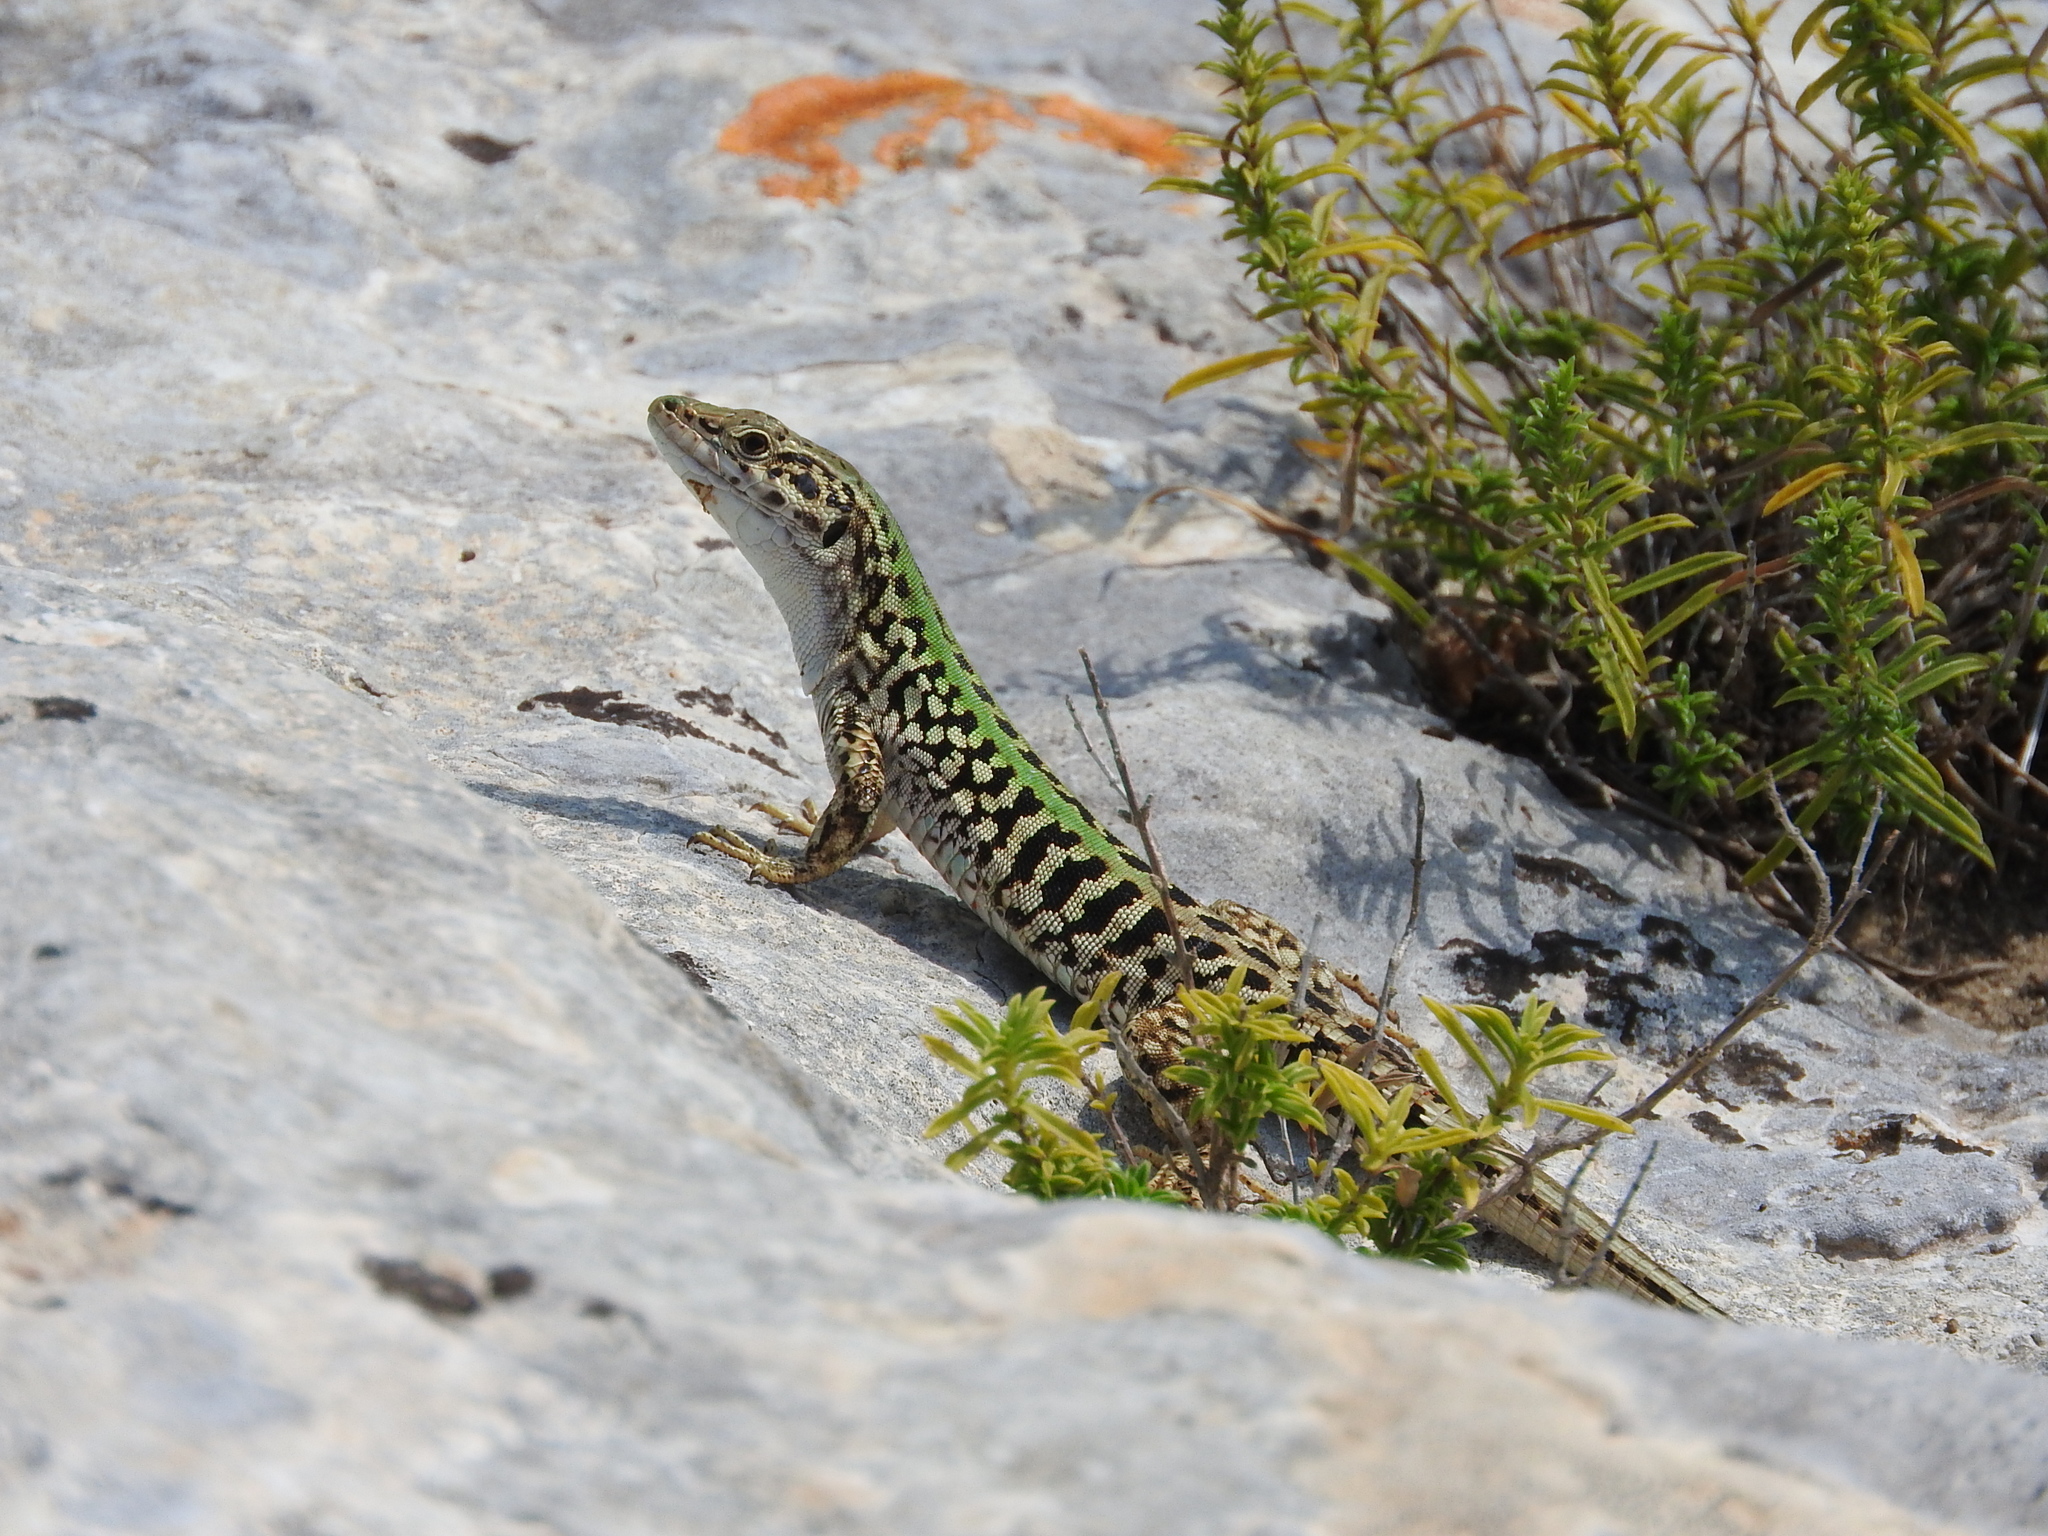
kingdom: Animalia
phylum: Chordata
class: Squamata
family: Lacertidae
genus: Podarcis
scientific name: Podarcis siculus
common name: Italian wall lizard
